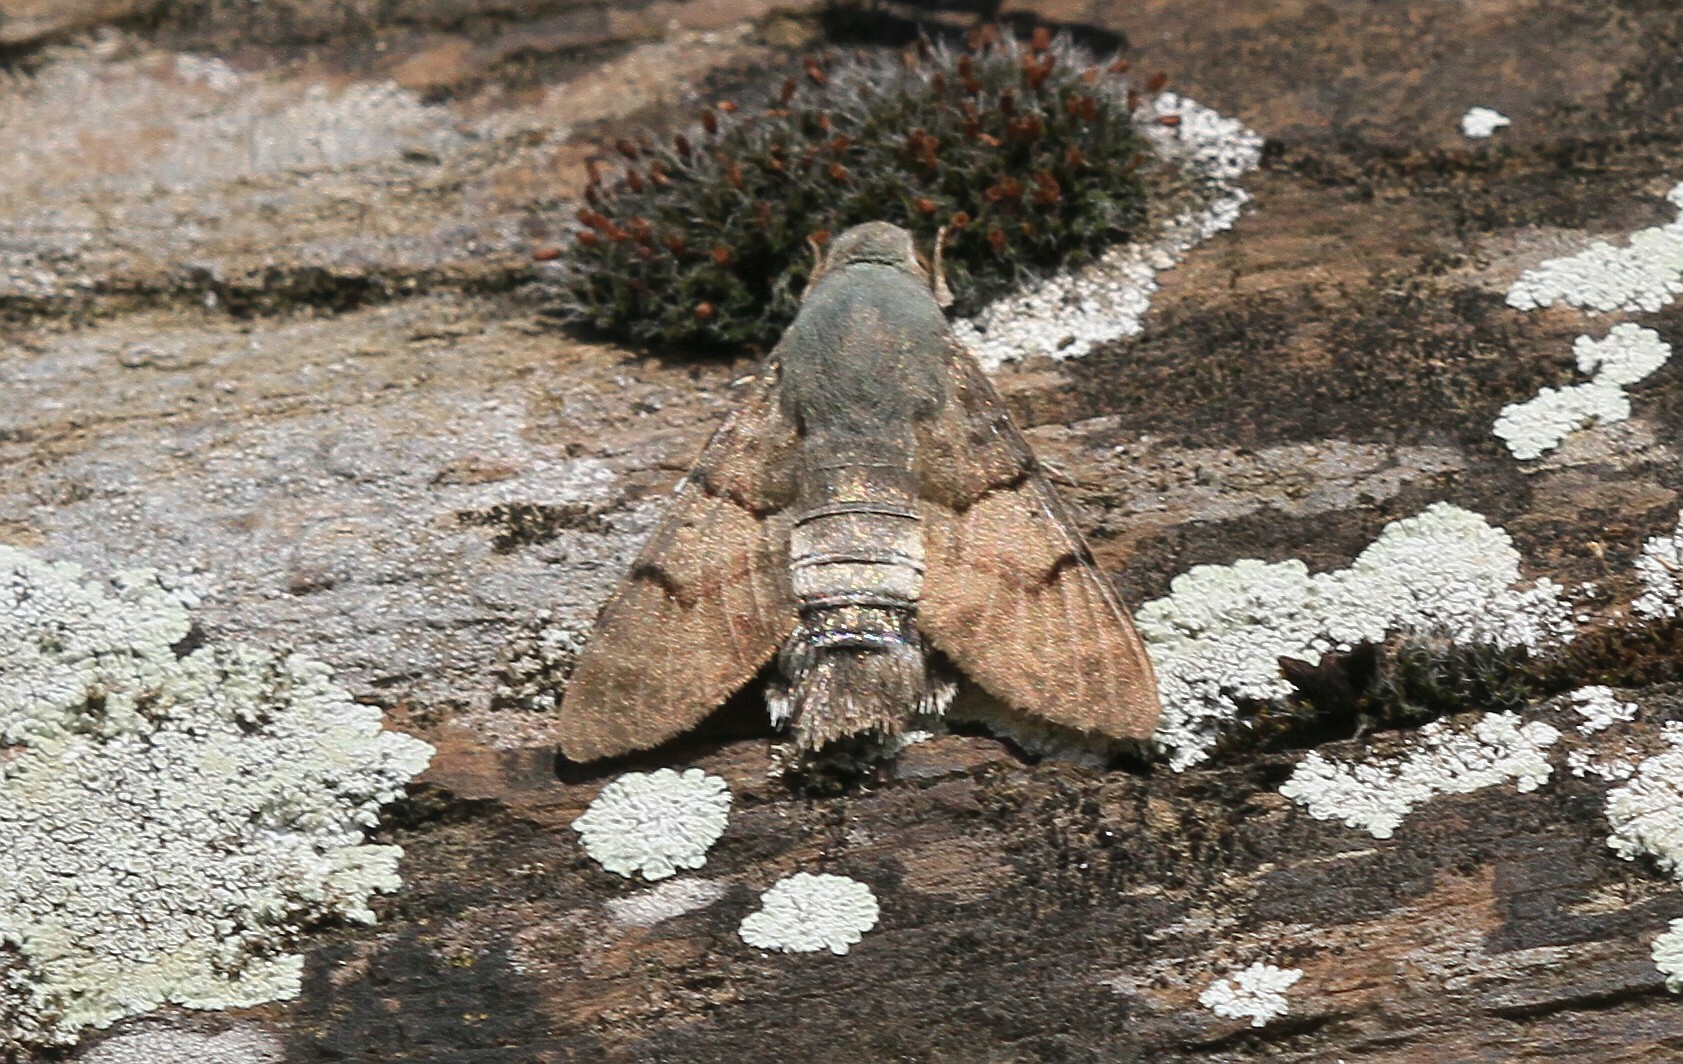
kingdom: Animalia
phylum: Arthropoda
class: Insecta
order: Lepidoptera
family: Sphingidae
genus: Macroglossum
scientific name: Macroglossum stellatarum
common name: Humming-bird hawk-moth
